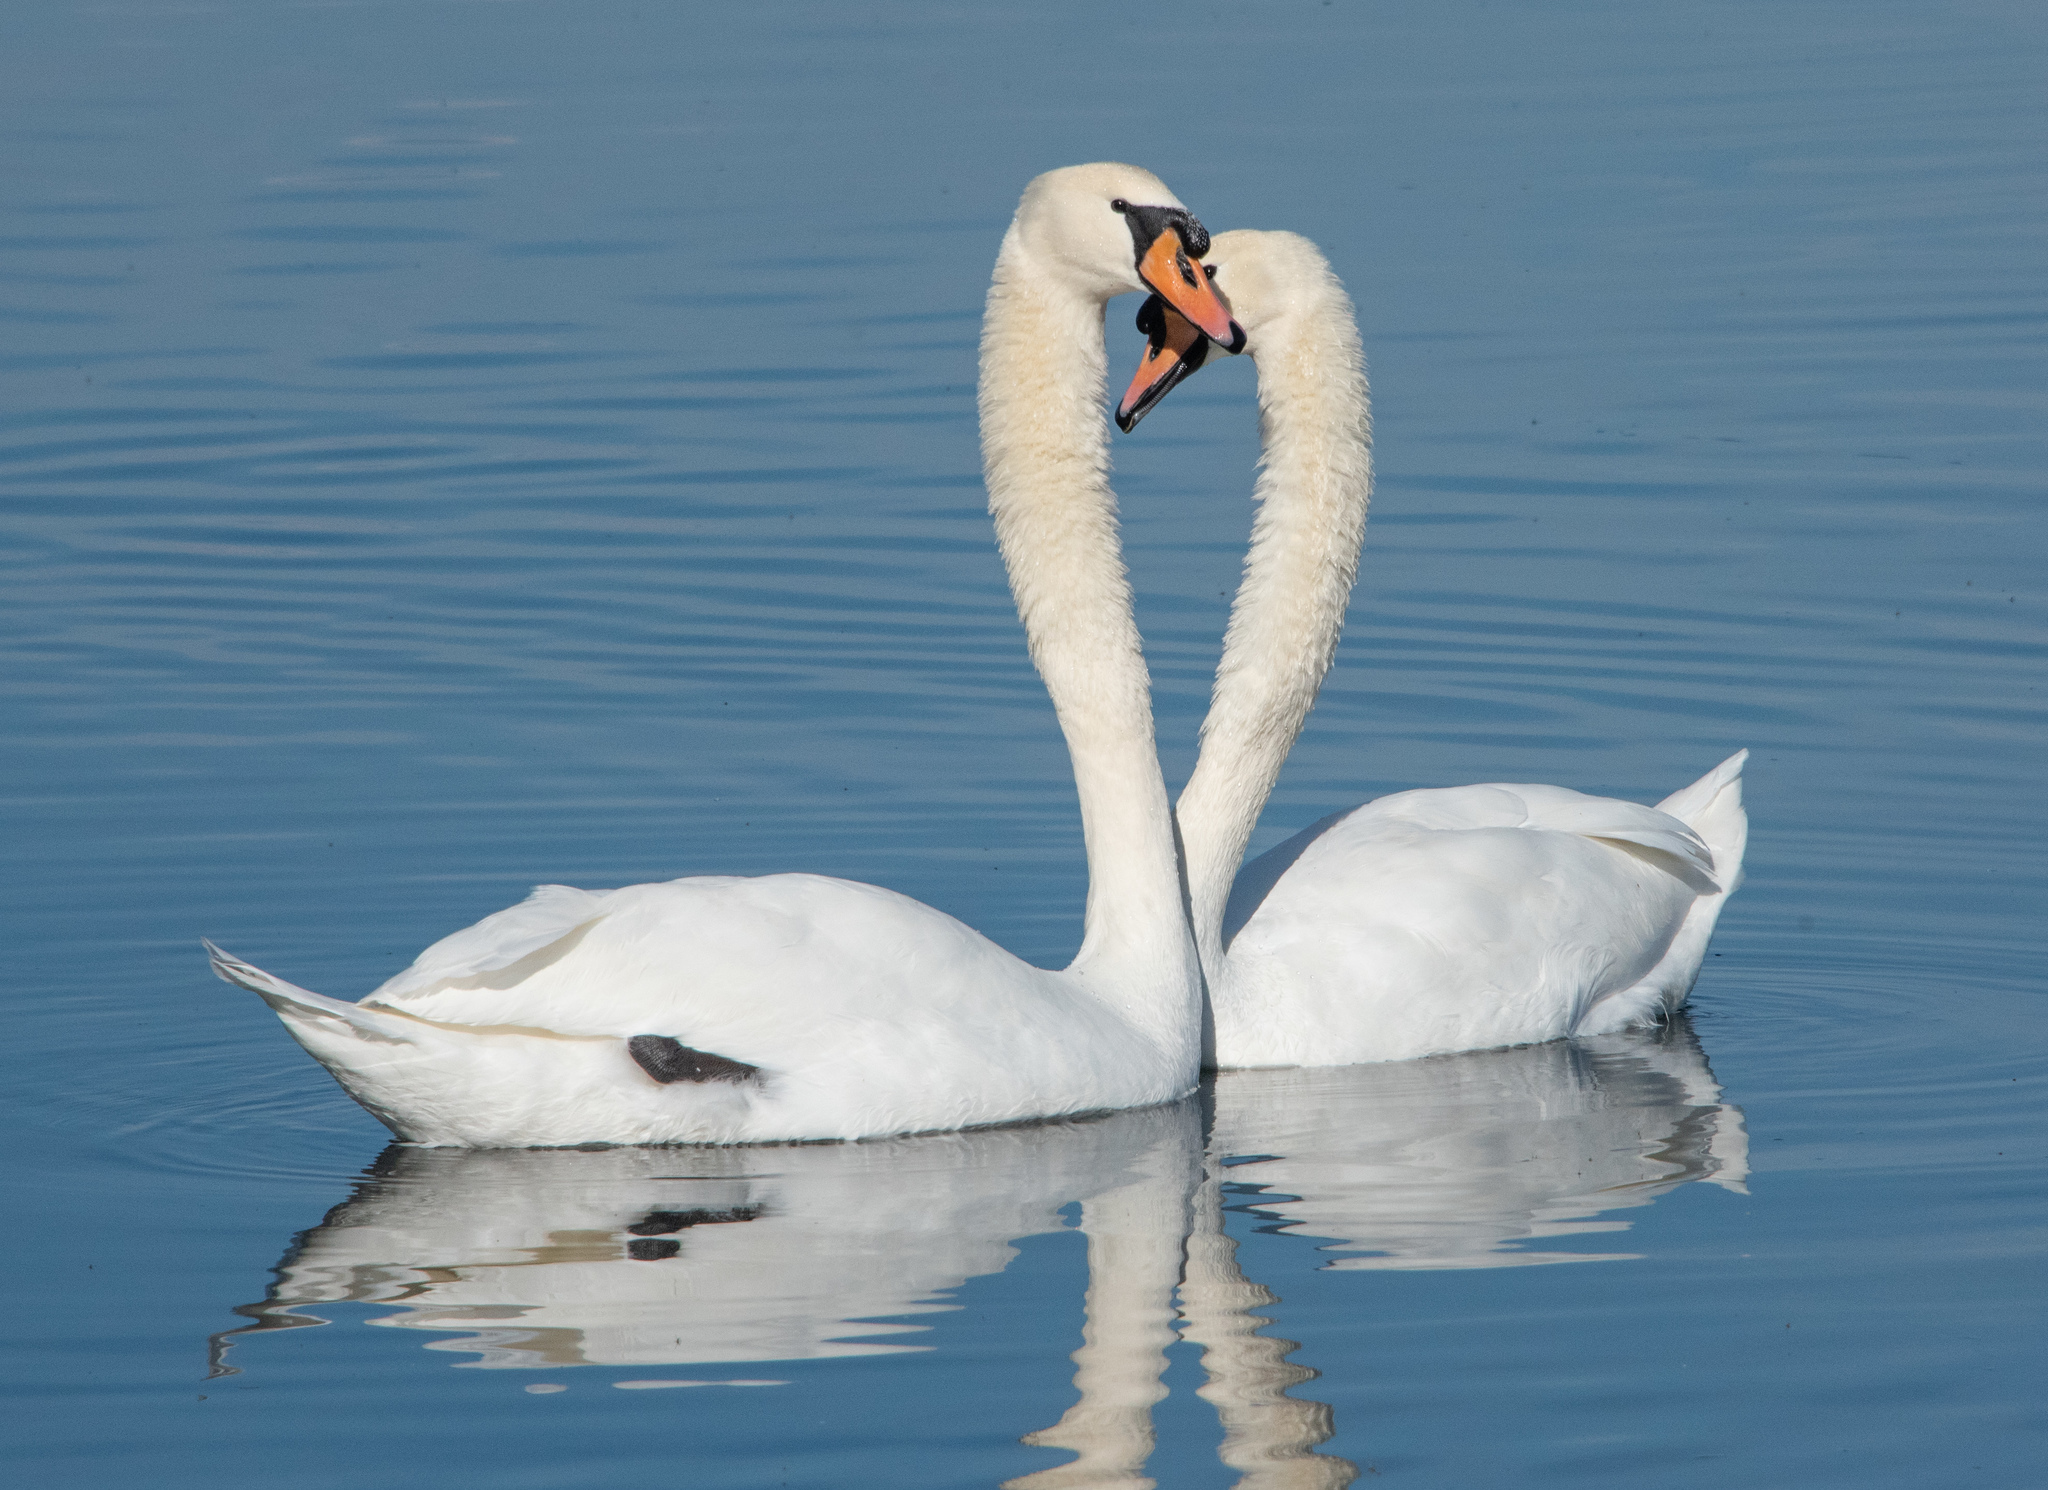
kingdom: Animalia
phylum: Chordata
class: Aves
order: Anseriformes
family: Anatidae
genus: Cygnus
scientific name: Cygnus olor
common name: Mute swan
